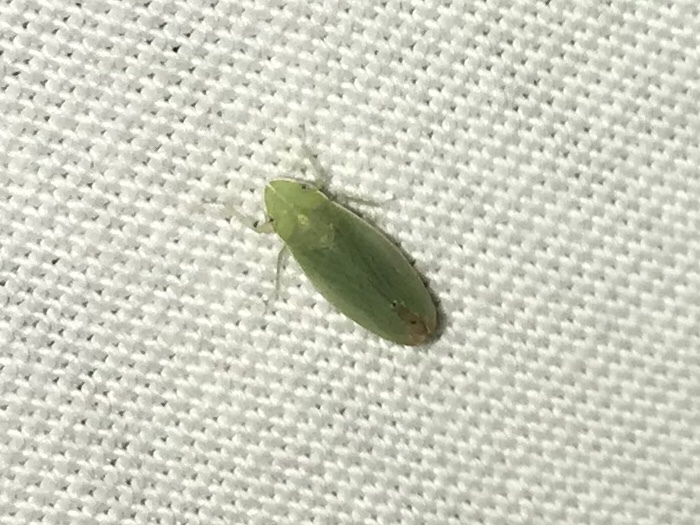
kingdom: Animalia
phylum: Arthropoda
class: Insecta
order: Hemiptera
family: Cicadellidae
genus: Memnonia
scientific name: Memnonia flavida
